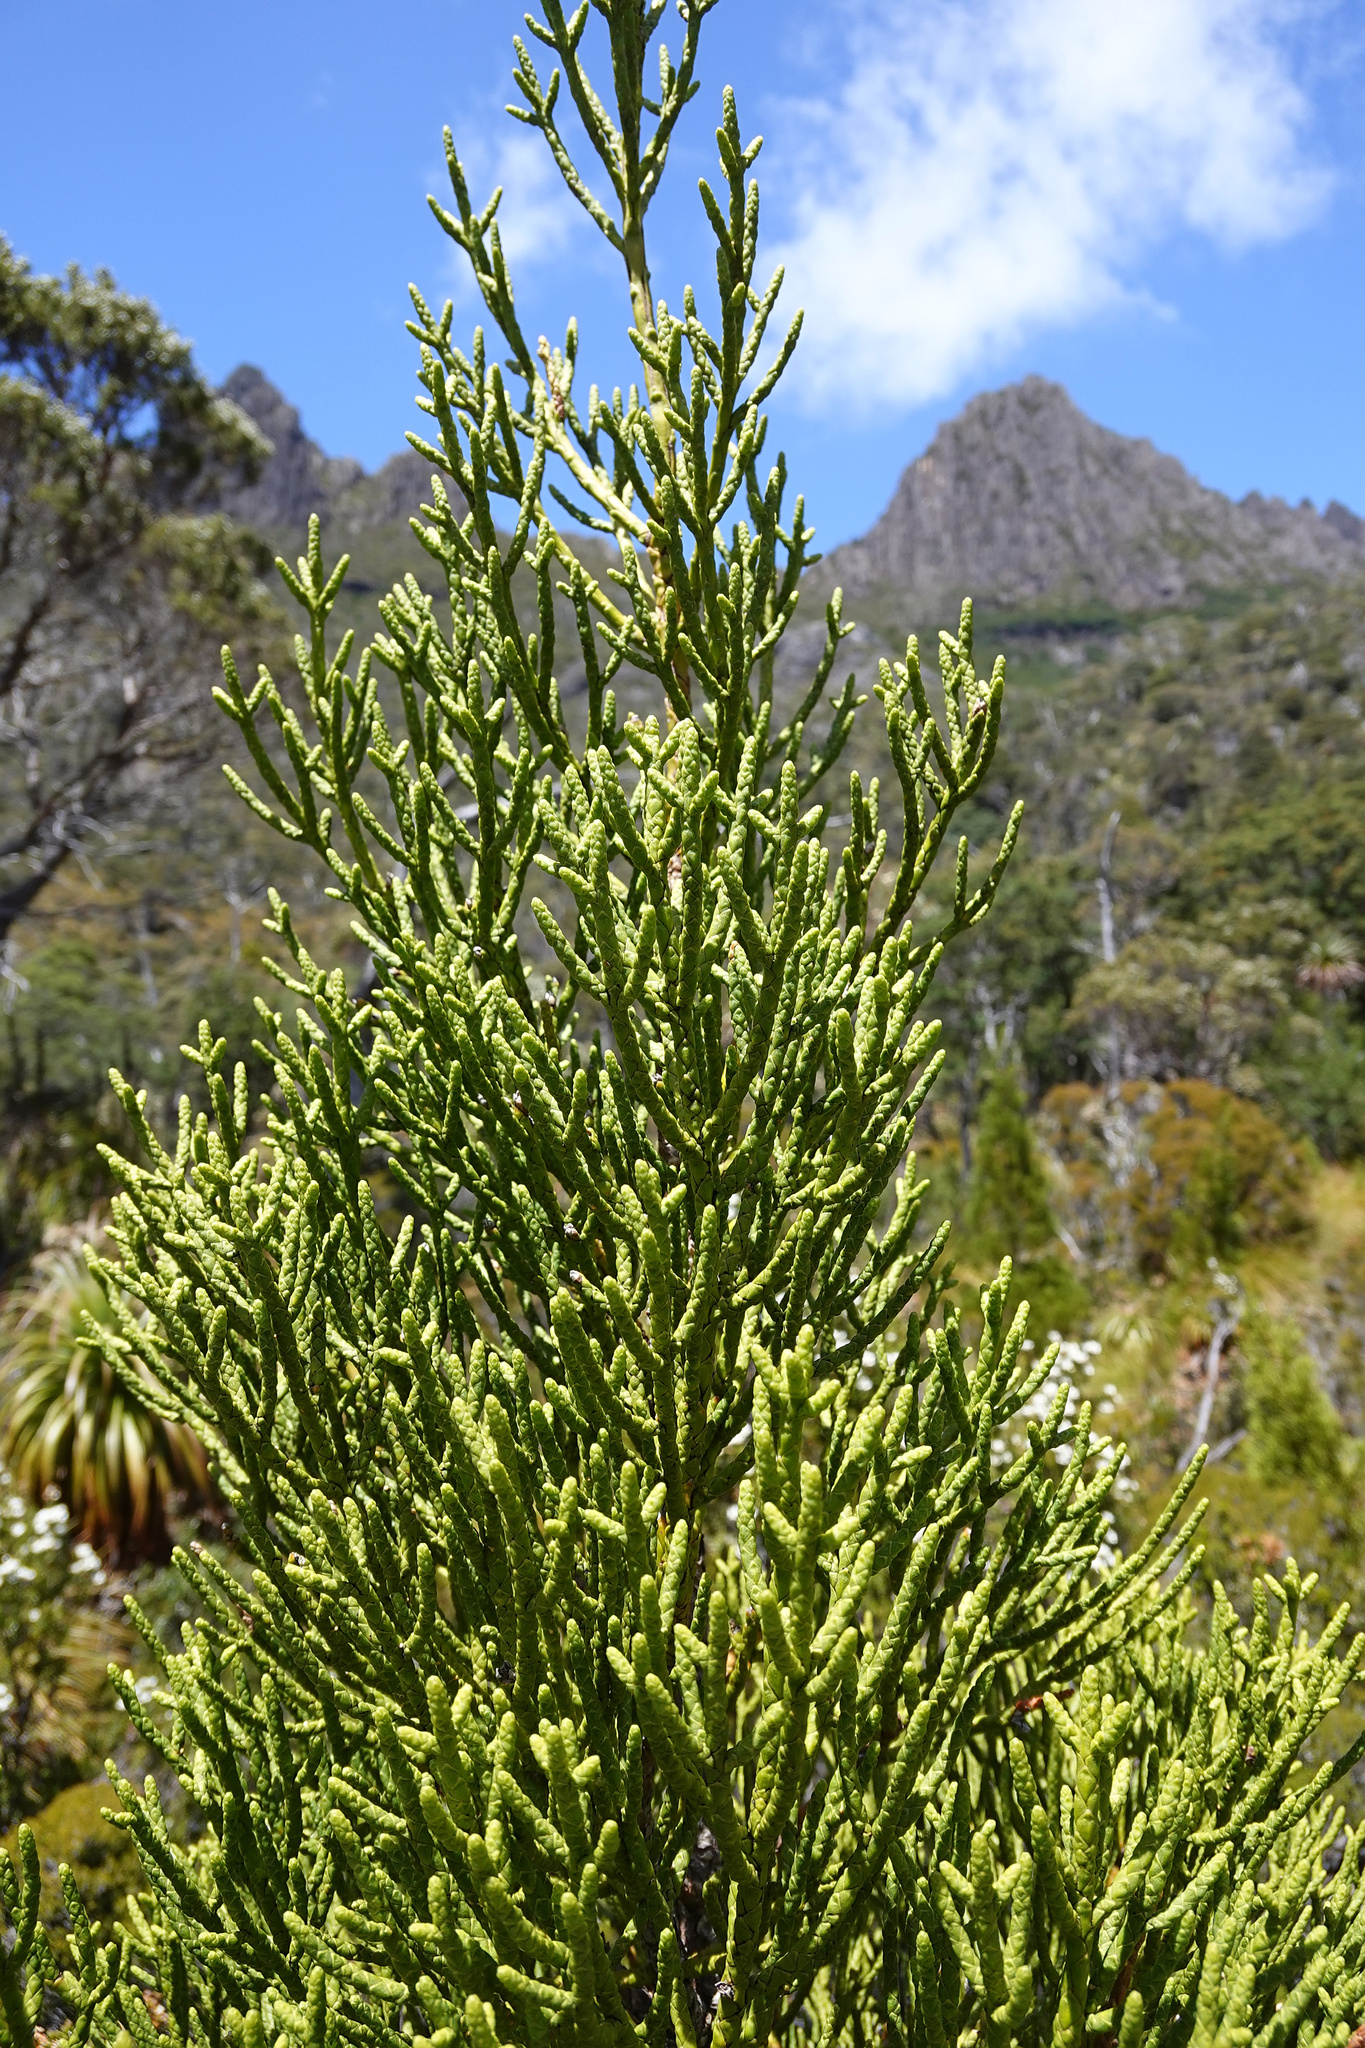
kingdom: Plantae
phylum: Tracheophyta
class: Pinopsida
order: Pinales
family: Cupressaceae
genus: Athrotaxis
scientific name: Athrotaxis cupressoides
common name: Tasmanian pencil pine
